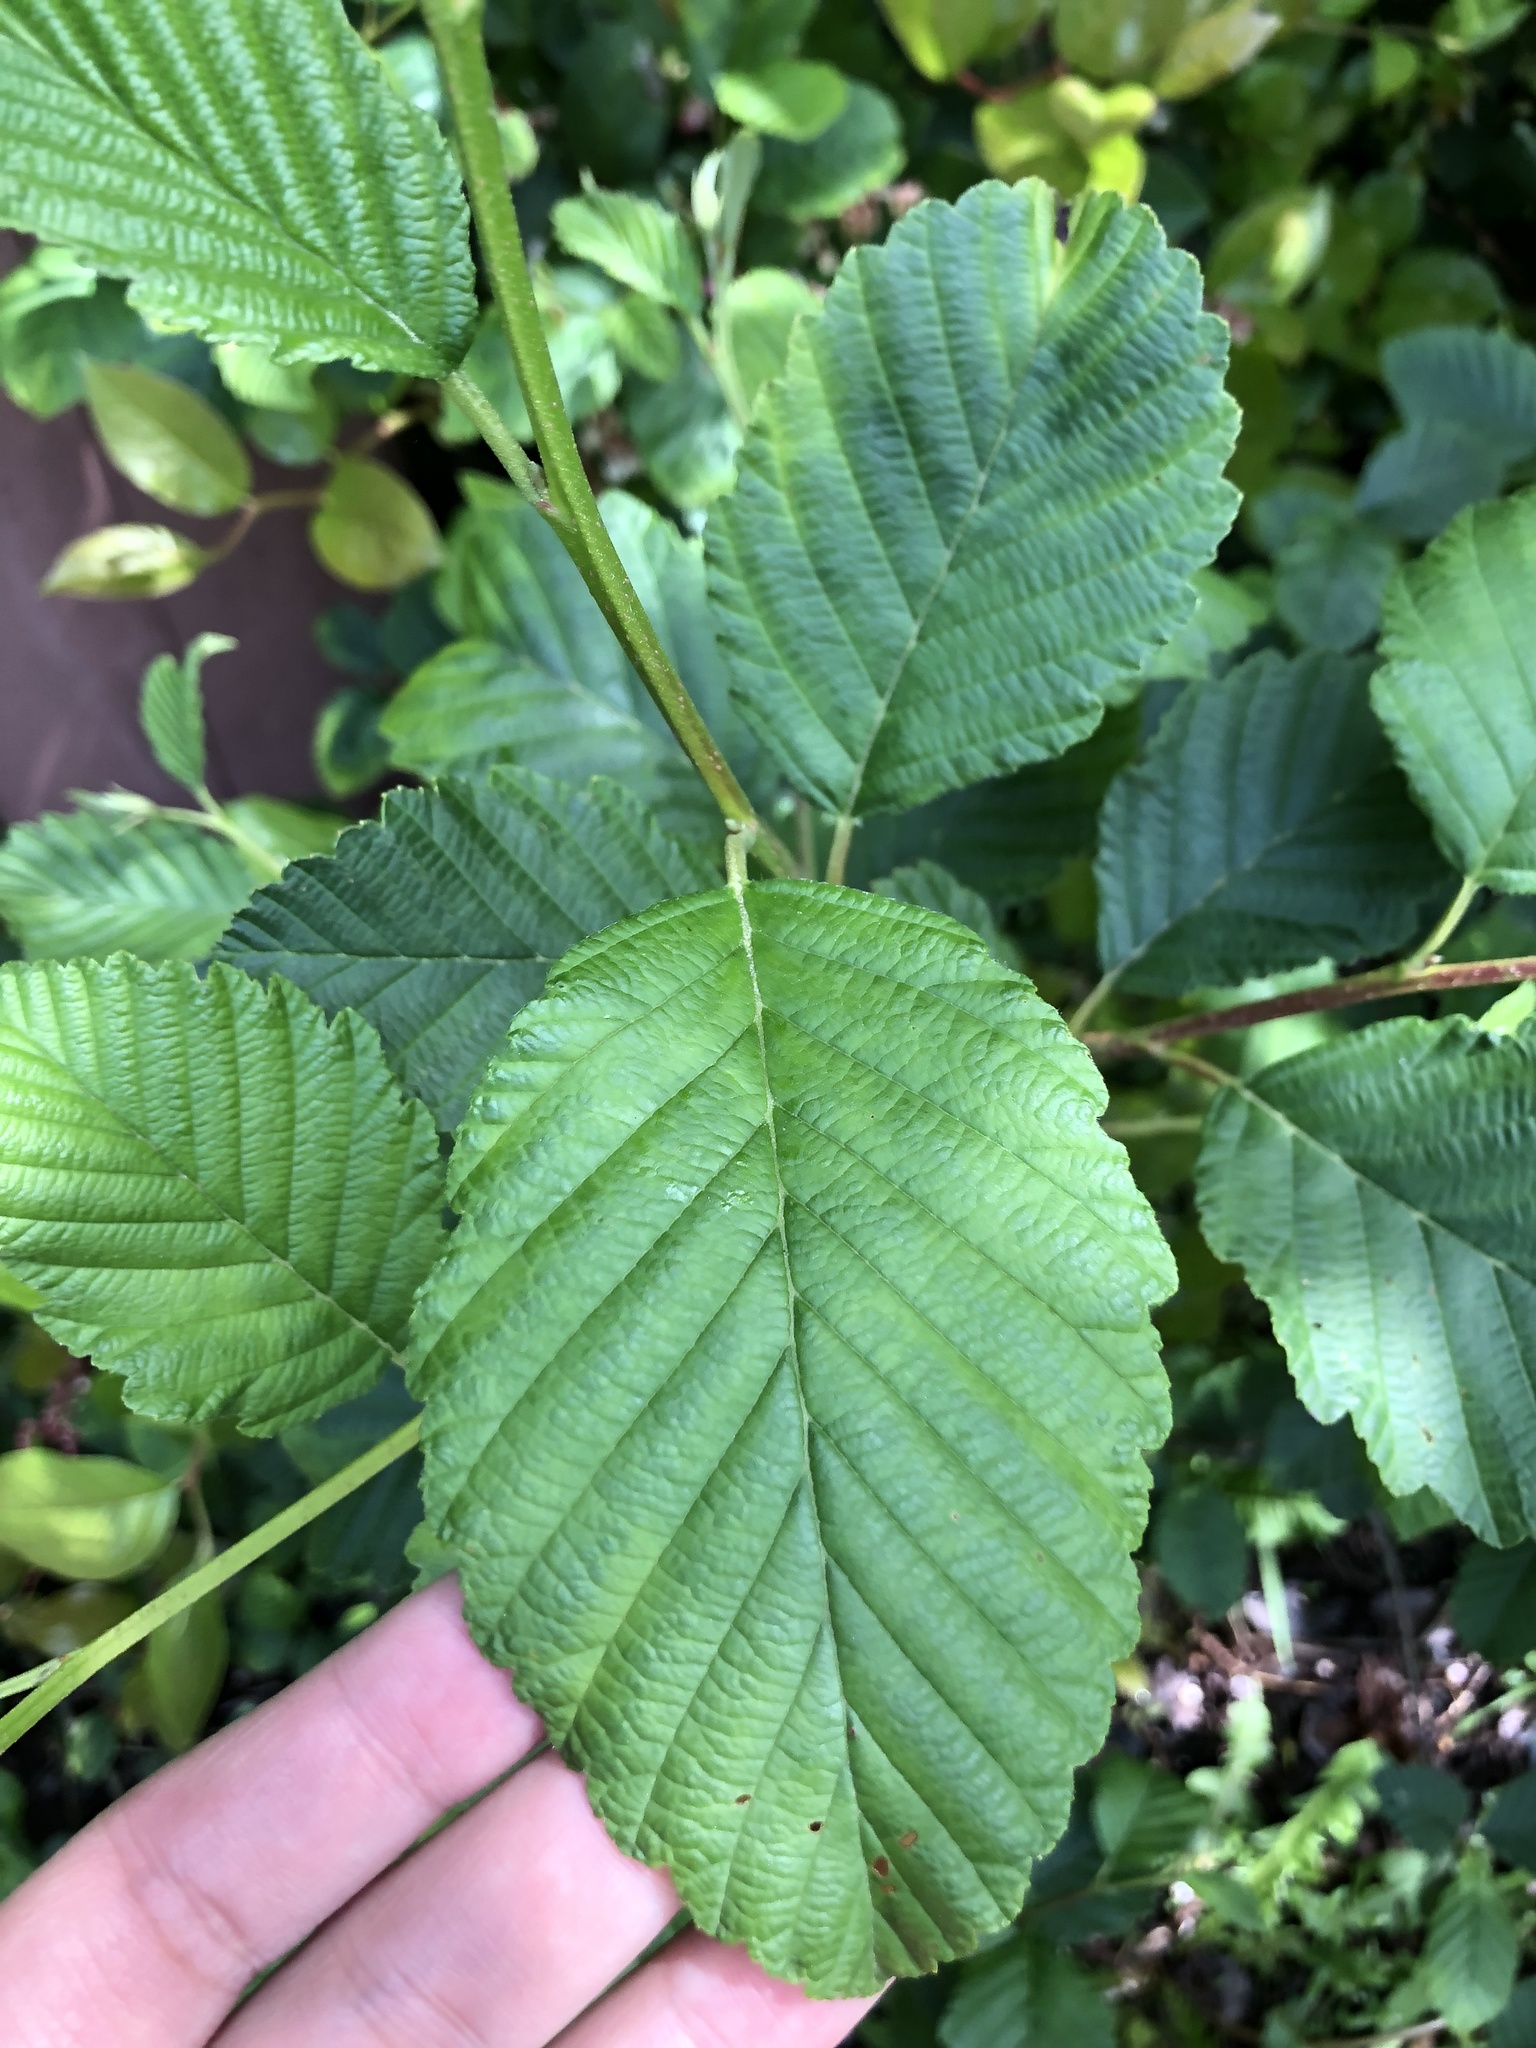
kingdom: Plantae
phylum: Tracheophyta
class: Magnoliopsida
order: Fagales
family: Betulaceae
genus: Alnus
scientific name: Alnus rubra
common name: Red alder
